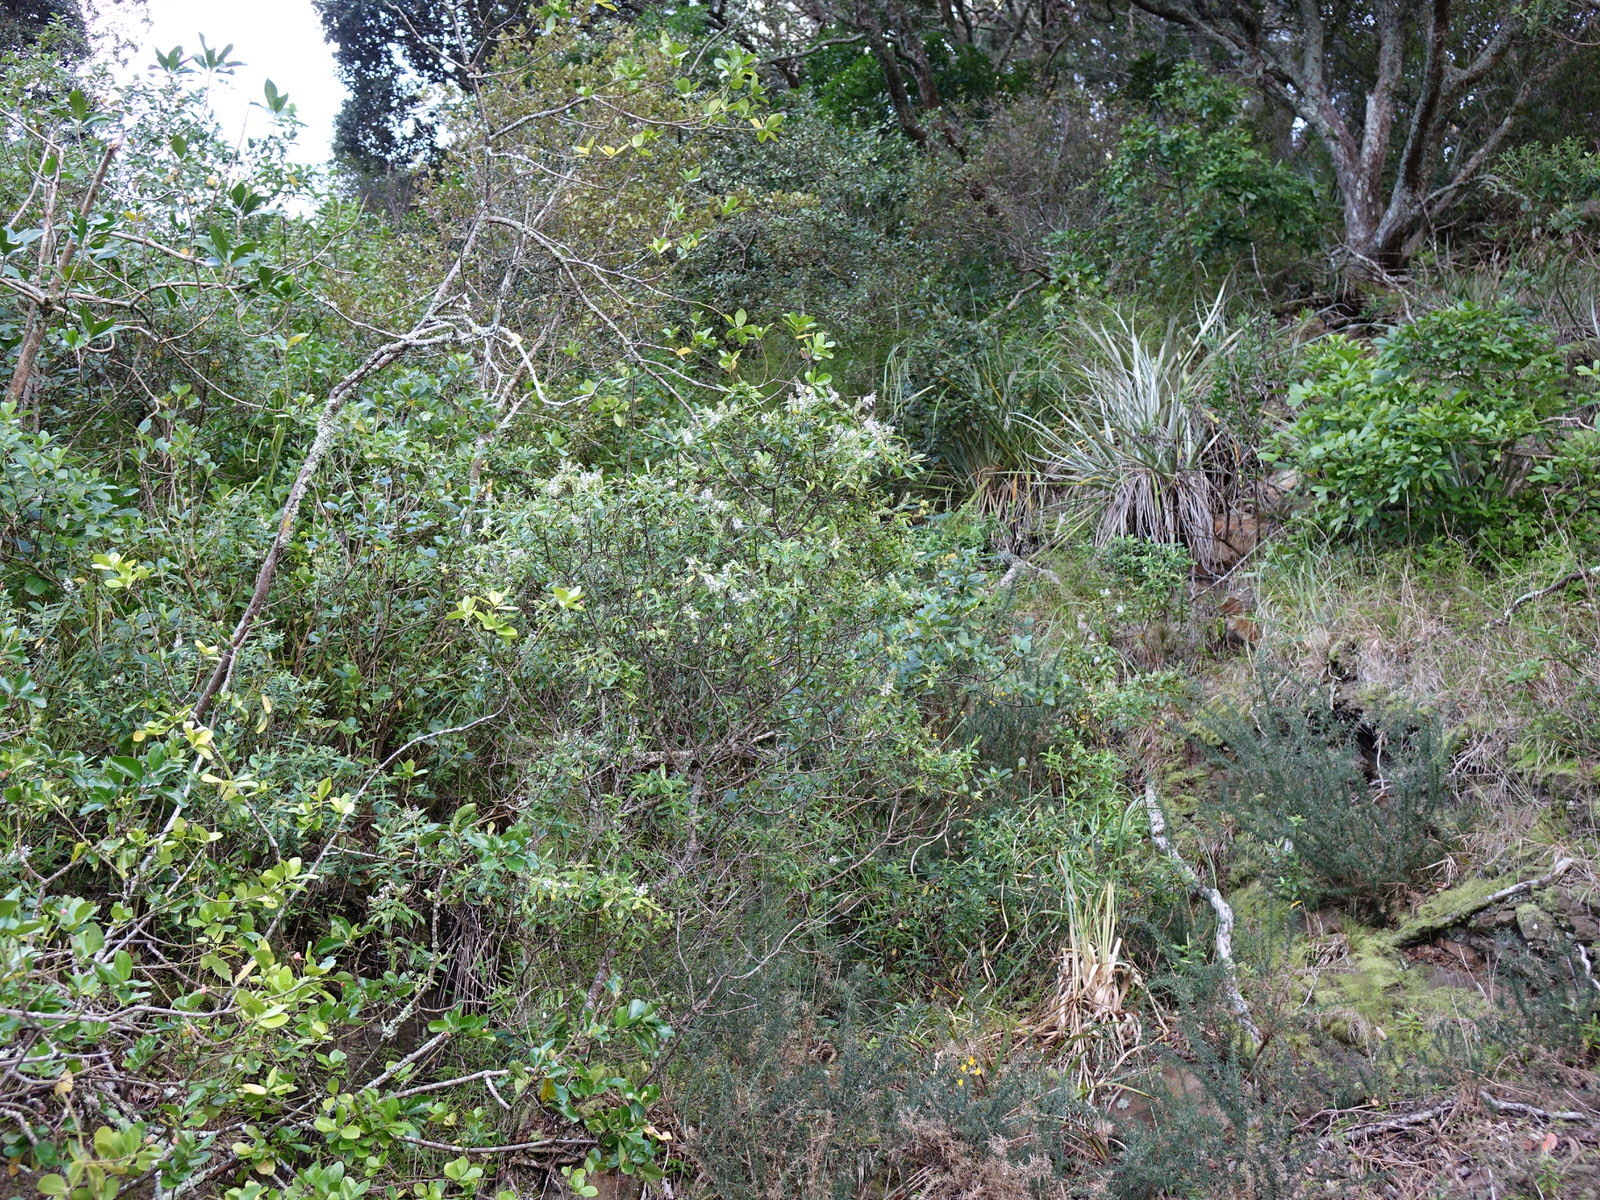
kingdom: Plantae
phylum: Tracheophyta
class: Magnoliopsida
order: Lamiales
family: Plantaginaceae
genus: Veronica
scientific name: Veronica macrocarpa
